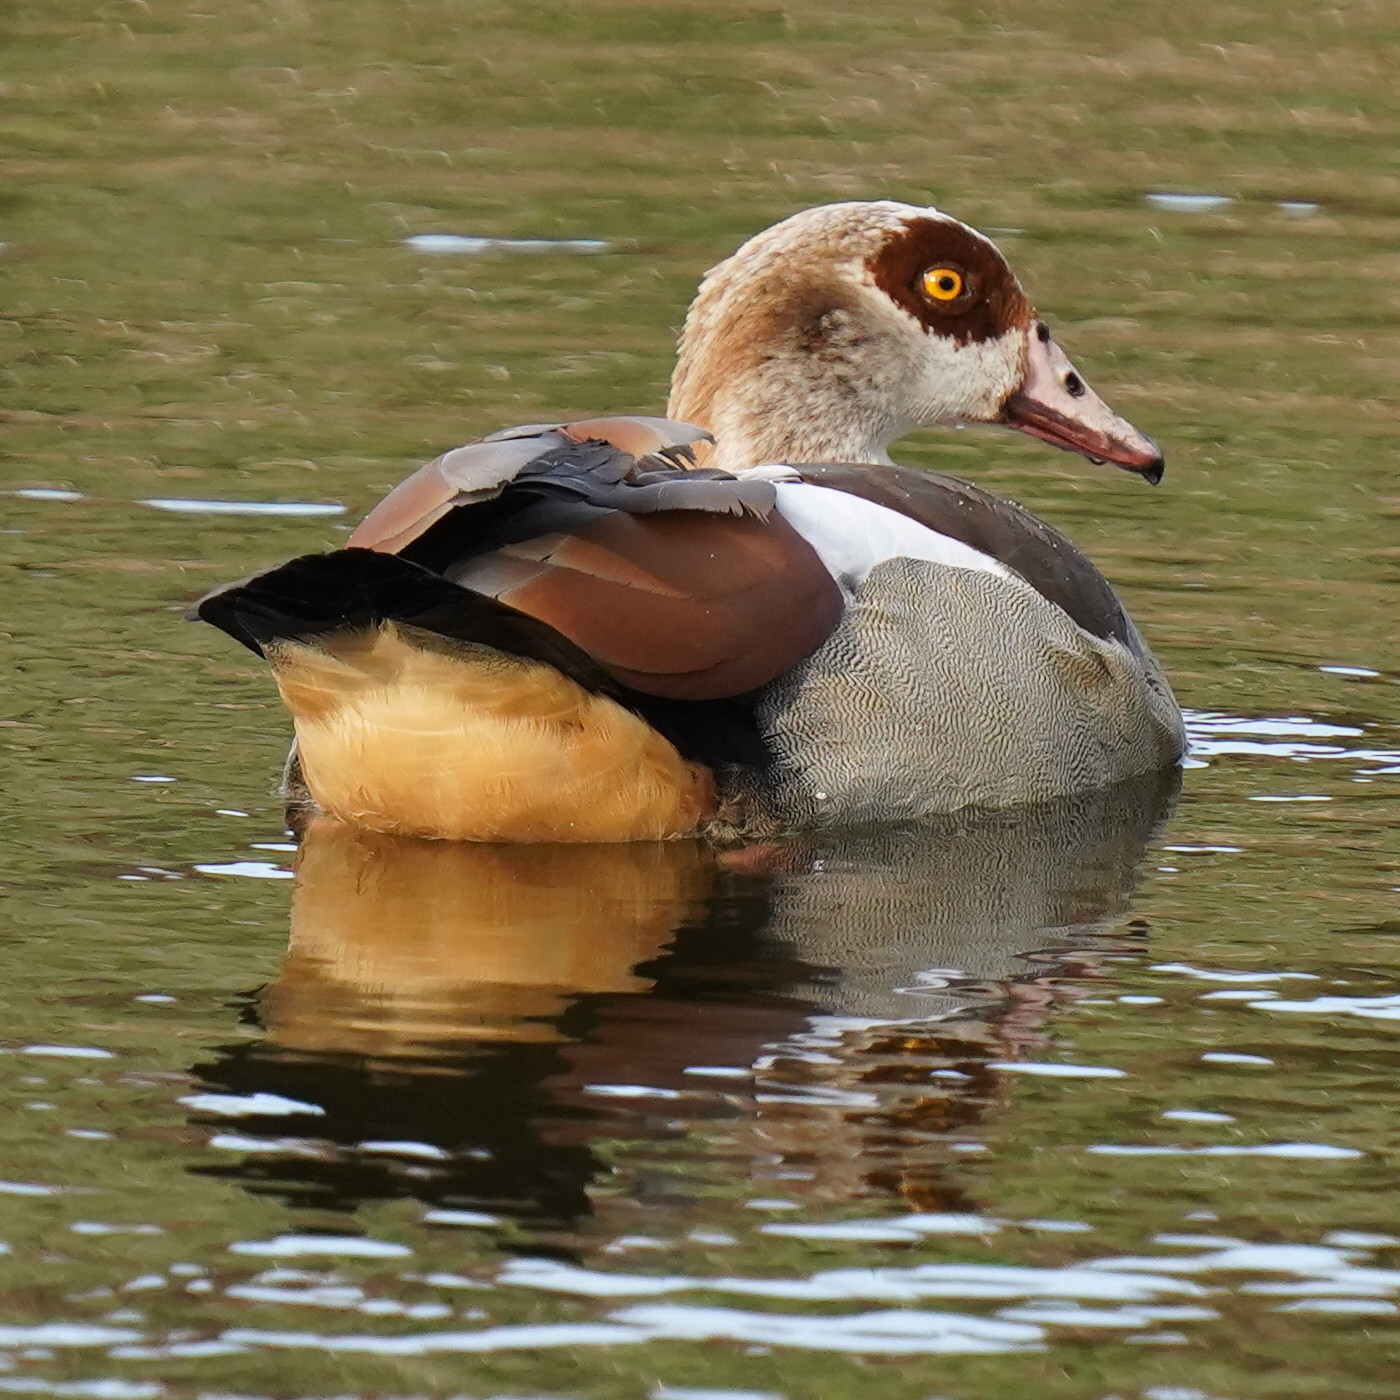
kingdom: Animalia
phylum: Chordata
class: Aves
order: Anseriformes
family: Anatidae
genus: Alopochen
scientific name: Alopochen aegyptiaca
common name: Egyptian goose
